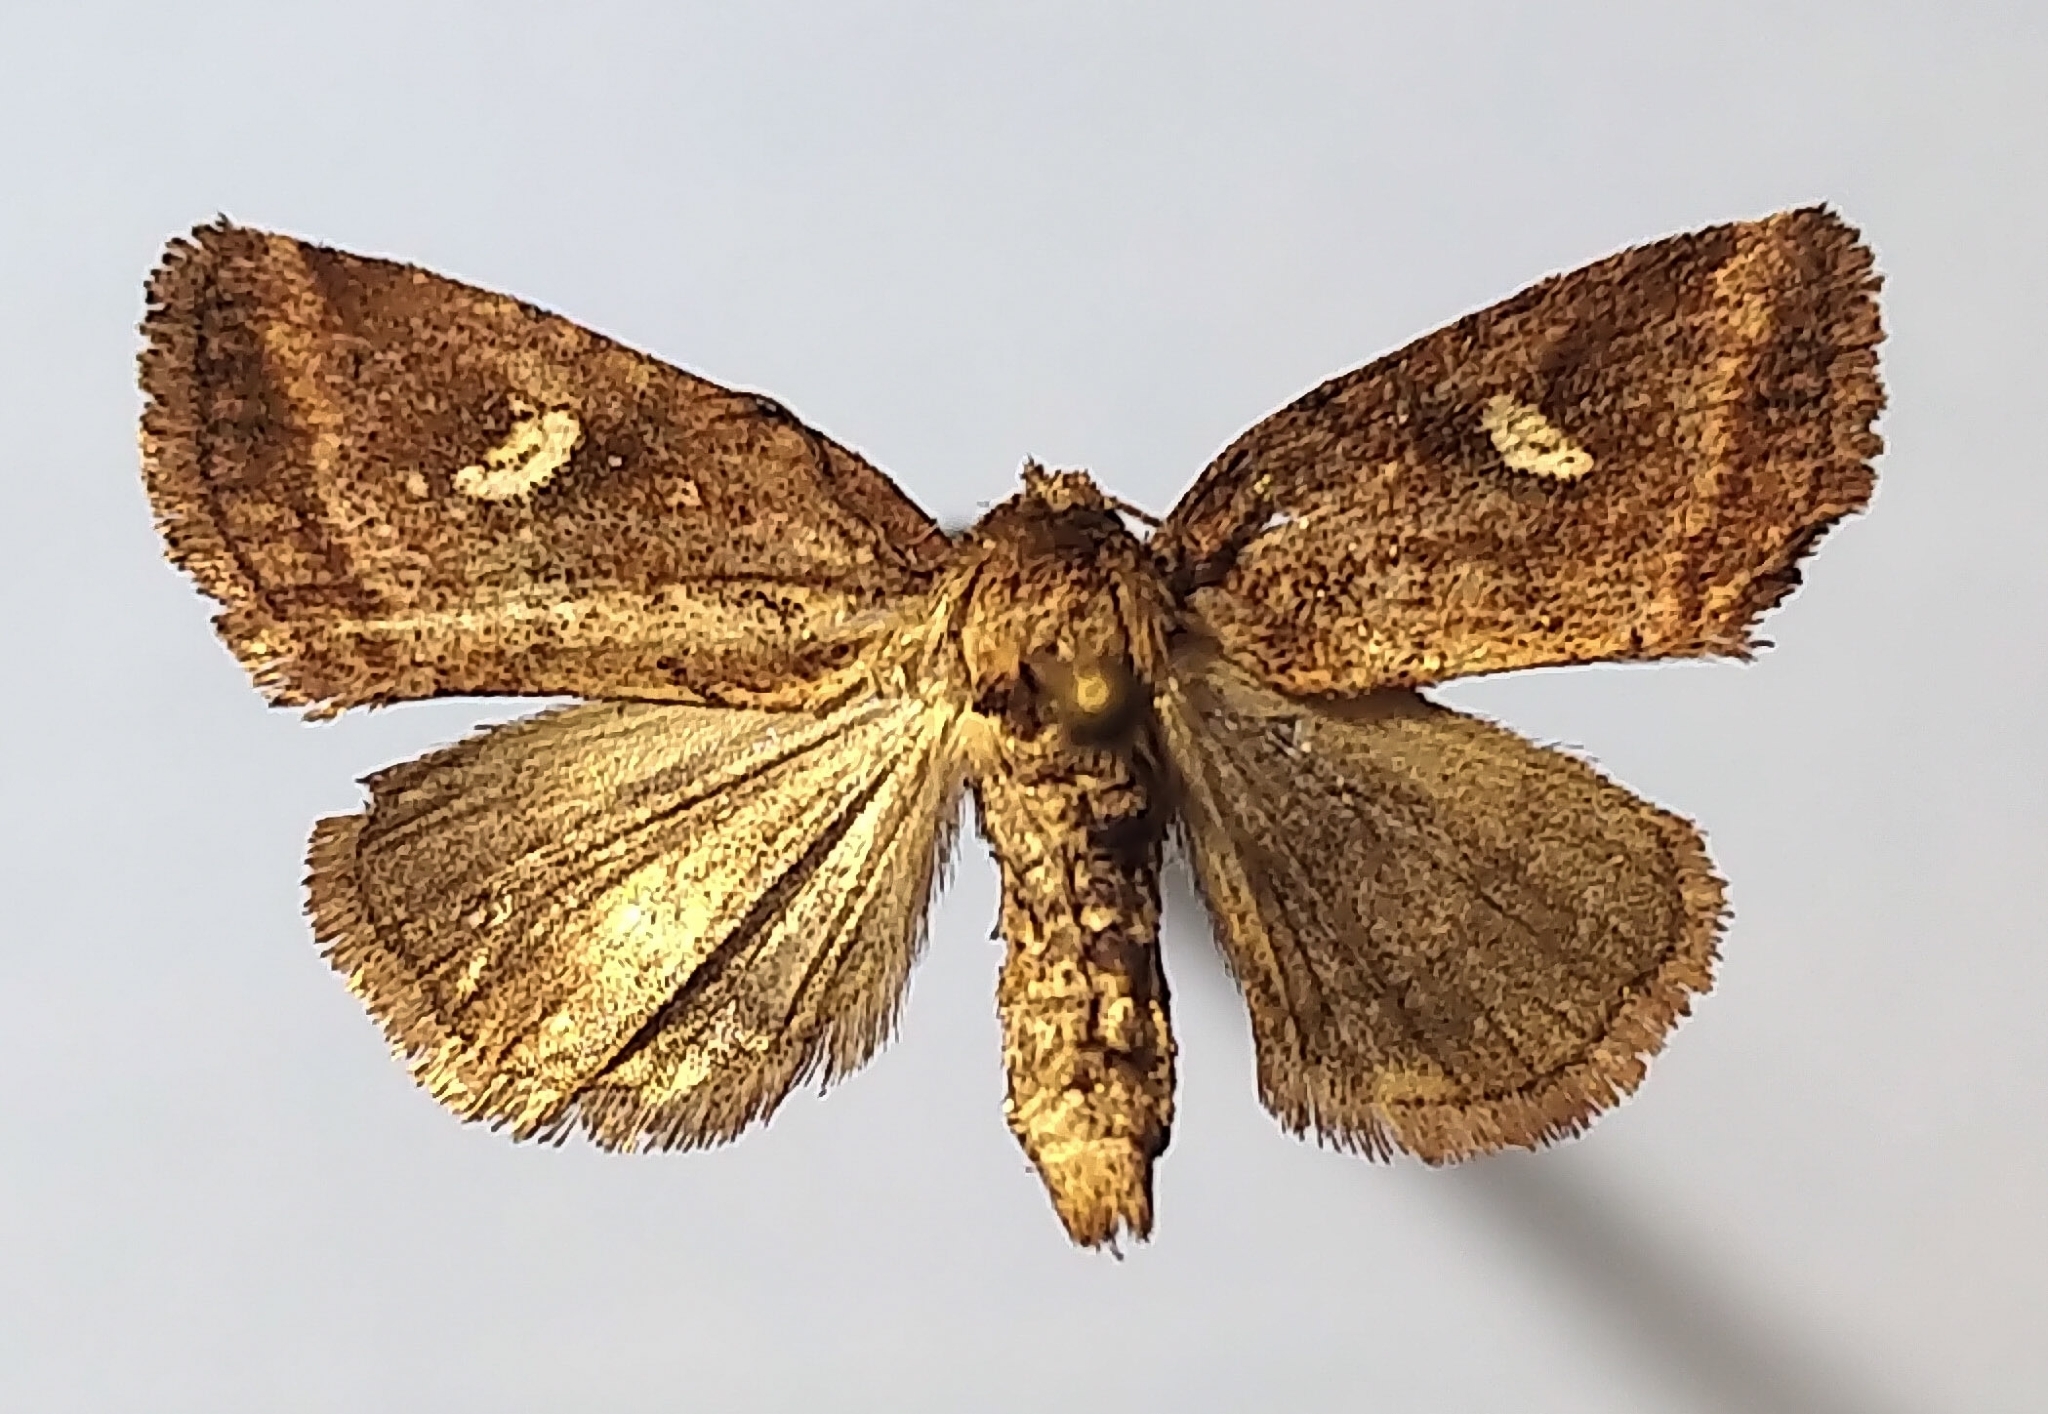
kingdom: Animalia
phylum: Arthropoda
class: Insecta
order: Lepidoptera
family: Noctuidae
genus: Photedes
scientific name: Photedes includens
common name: Included cordgrass borer moth
